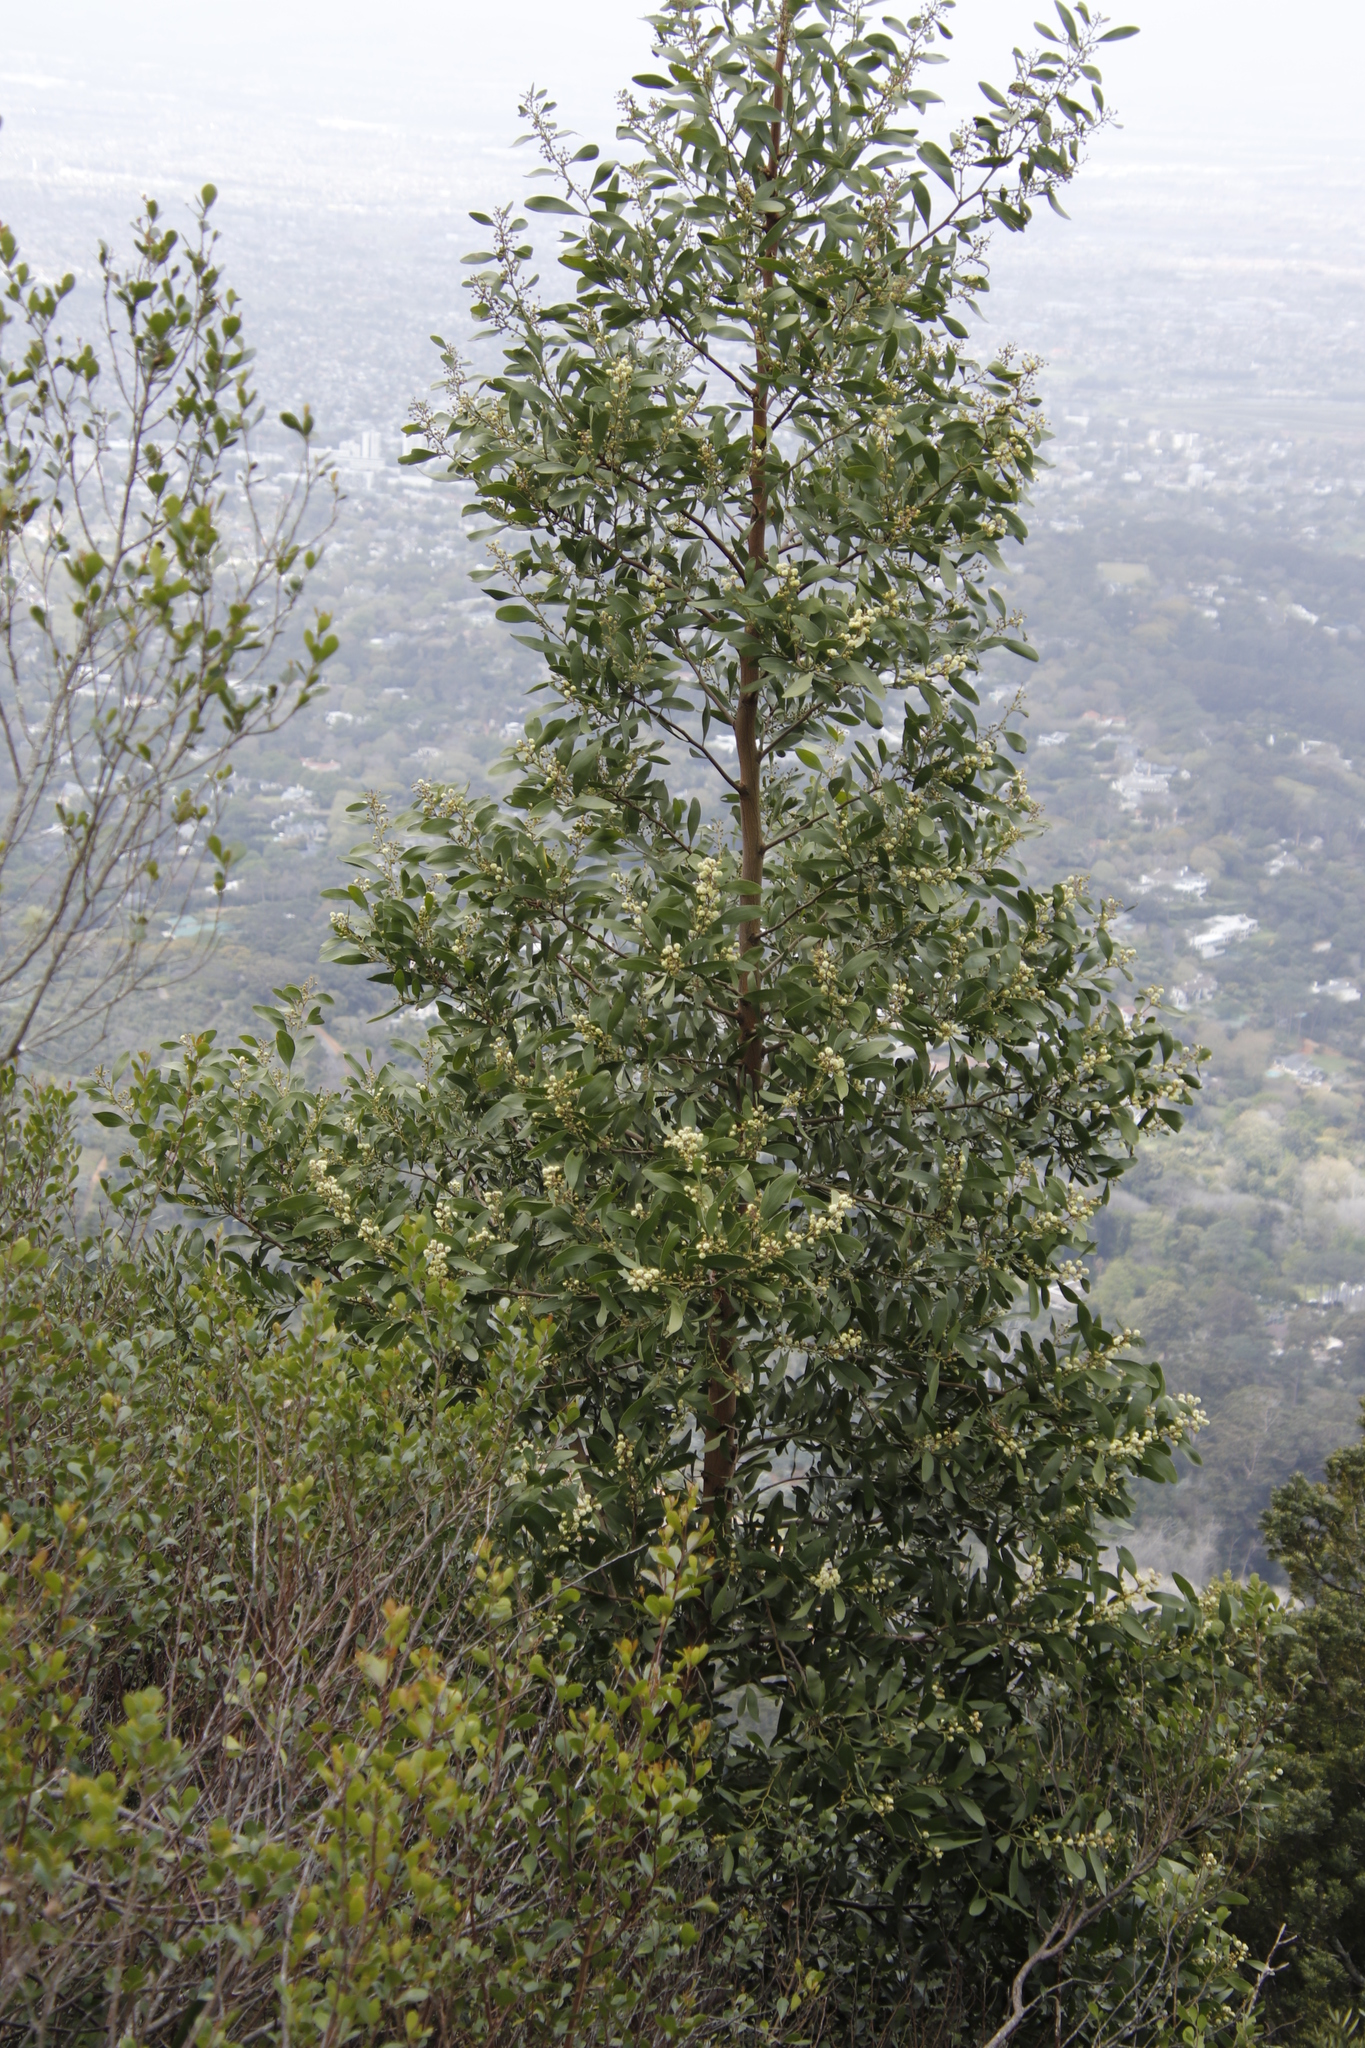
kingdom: Plantae
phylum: Tracheophyta
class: Magnoliopsida
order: Fabales
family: Fabaceae
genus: Acacia
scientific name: Acacia melanoxylon
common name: Blackwood
